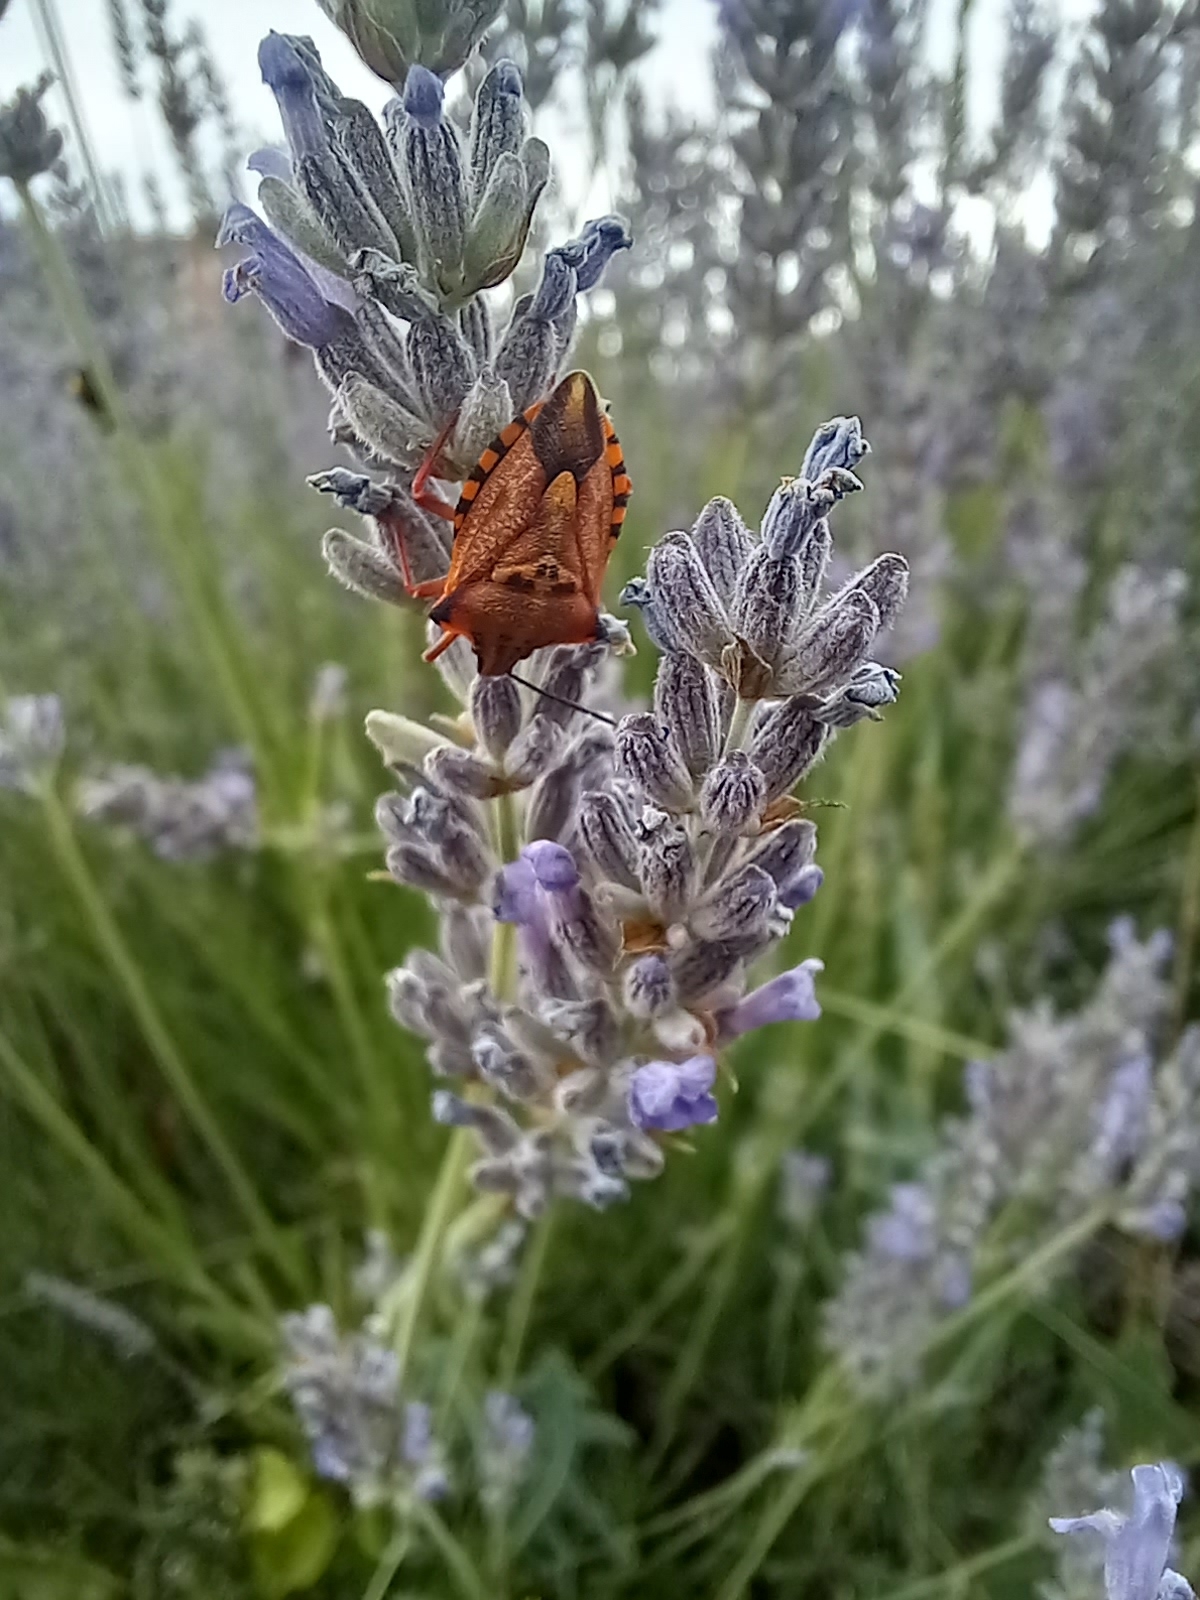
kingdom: Animalia
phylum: Arthropoda
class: Insecta
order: Hemiptera
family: Pentatomidae
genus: Carpocoris
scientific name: Carpocoris mediterraneus
